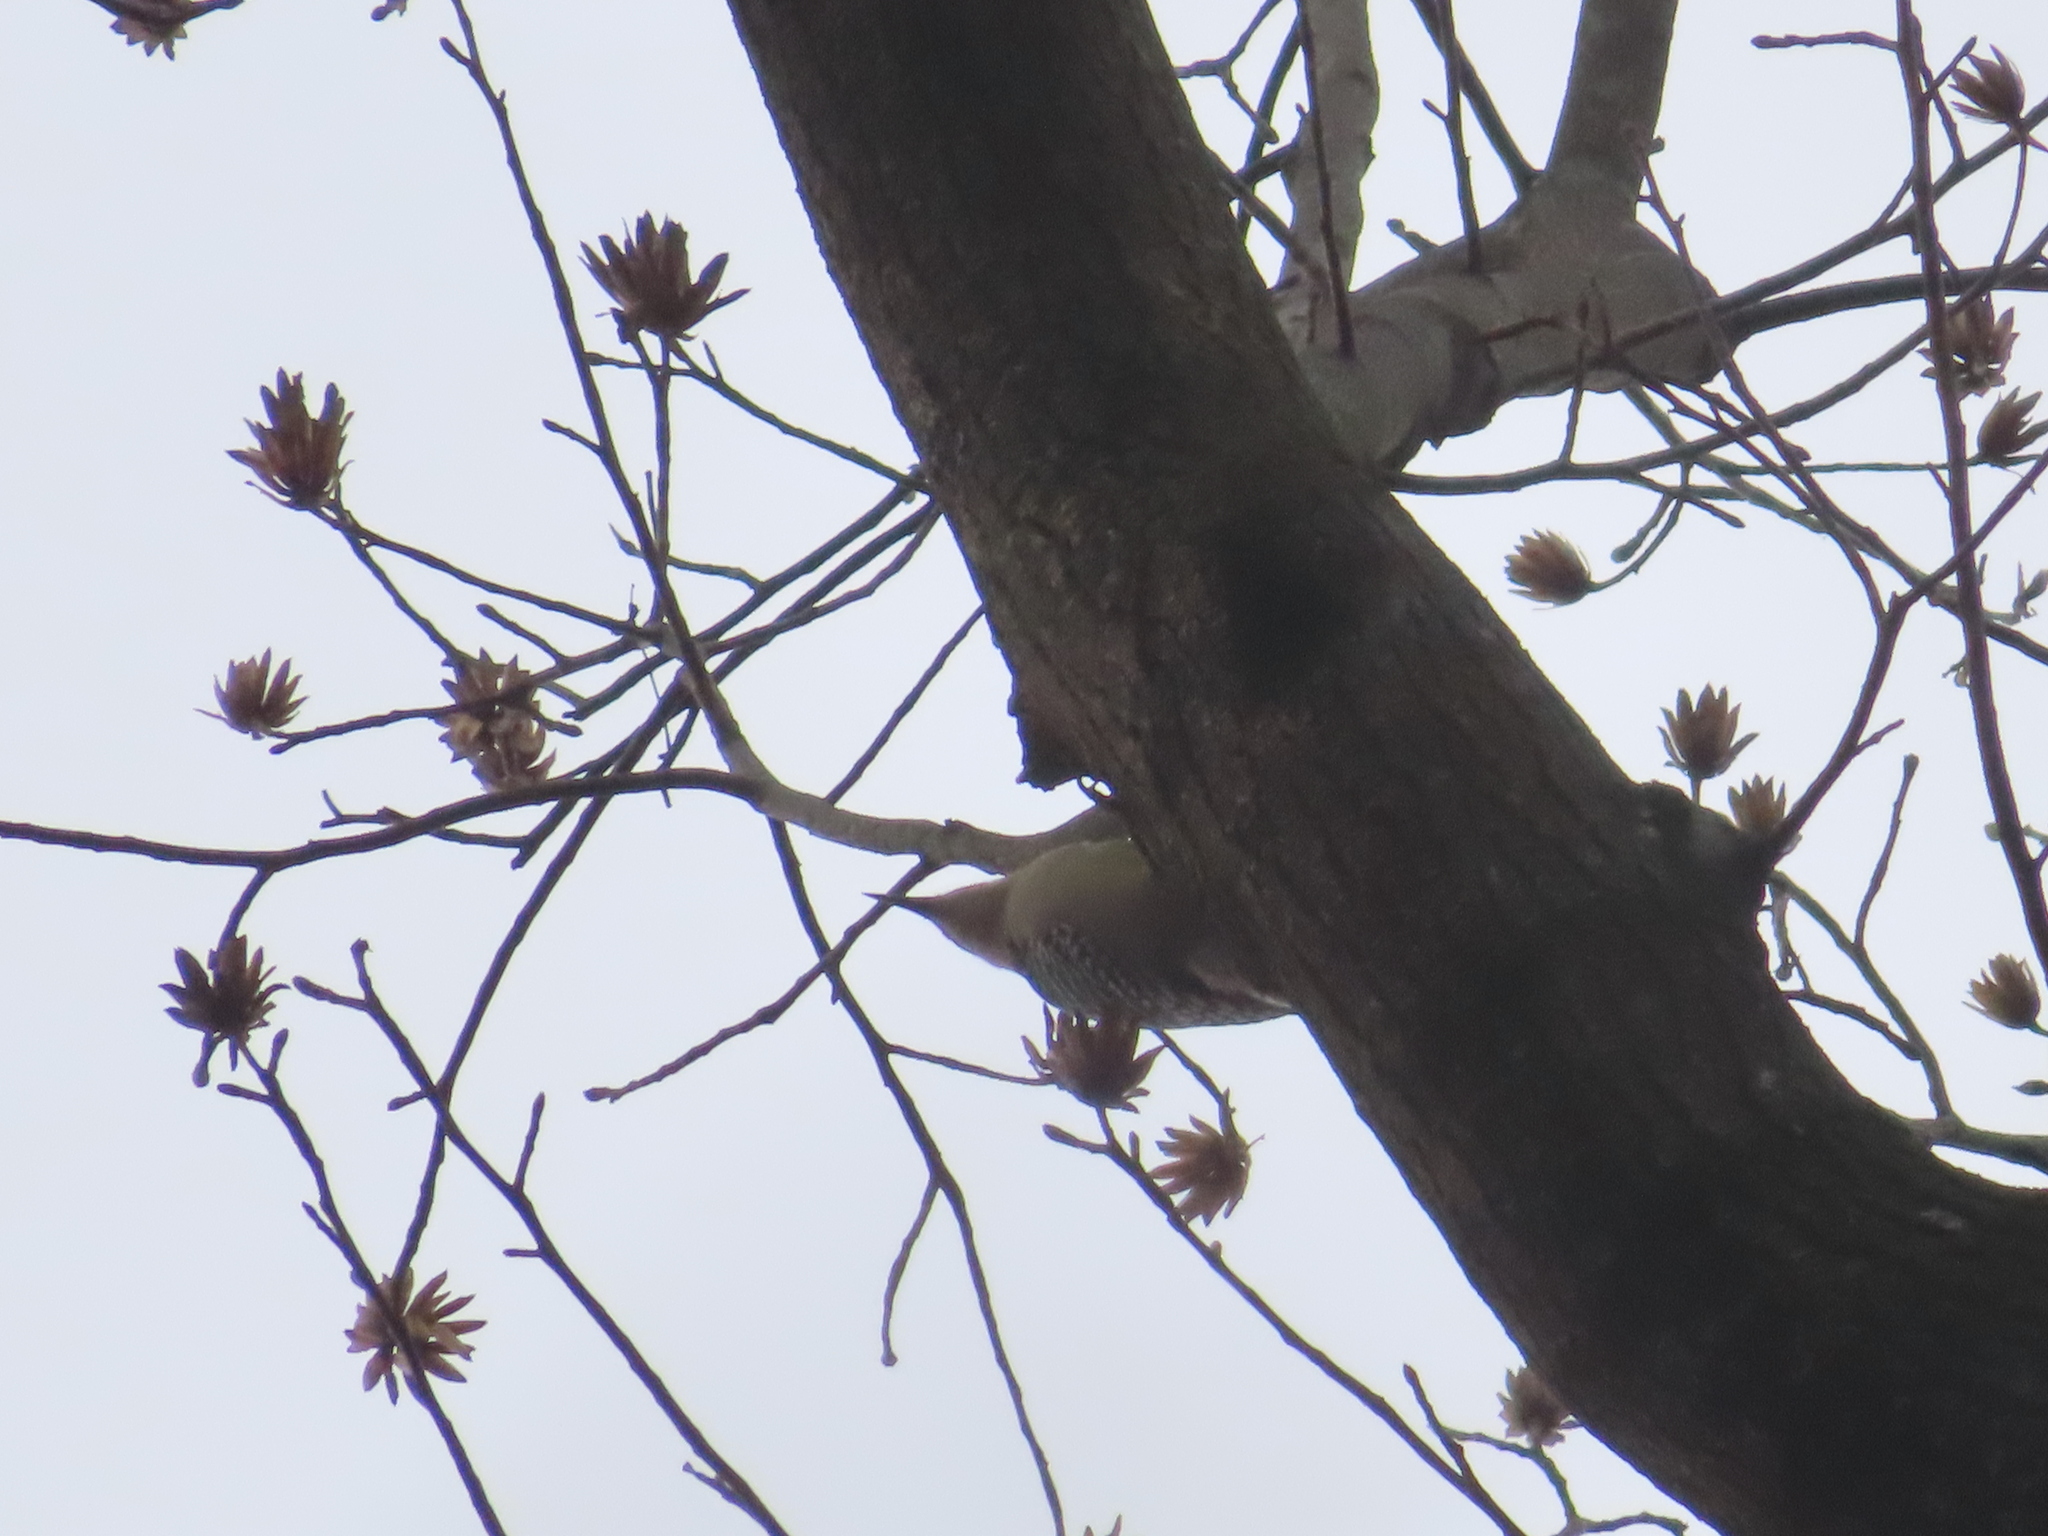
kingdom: Animalia
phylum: Chordata
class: Aves
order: Piciformes
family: Picidae
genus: Melanerpes
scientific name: Melanerpes carolinus
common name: Red-bellied woodpecker
